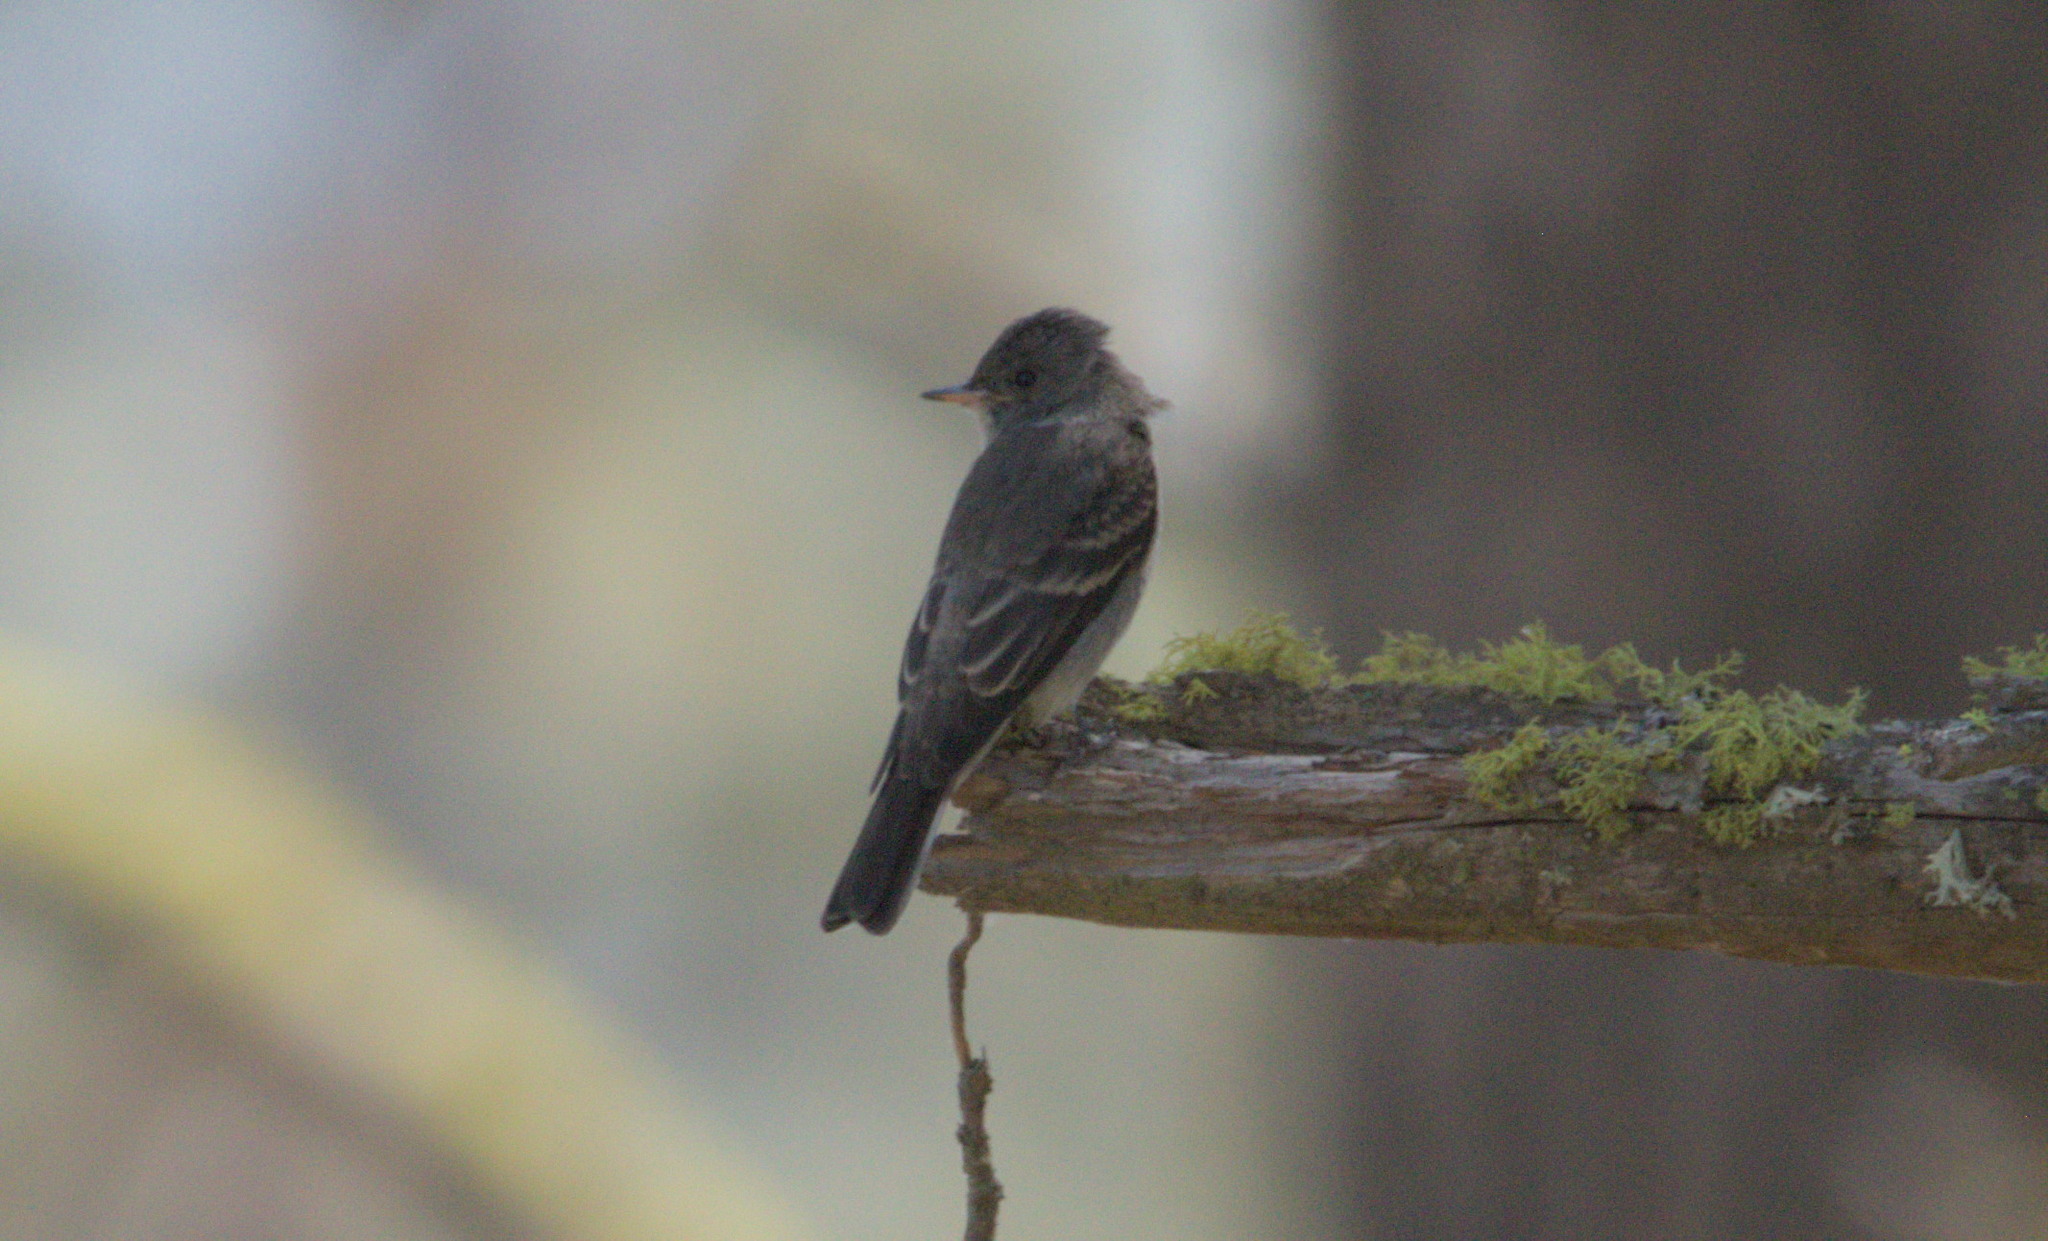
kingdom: Animalia
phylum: Chordata
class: Aves
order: Passeriformes
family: Tyrannidae
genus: Contopus
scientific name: Contopus sordidulus
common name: Western wood-pewee
